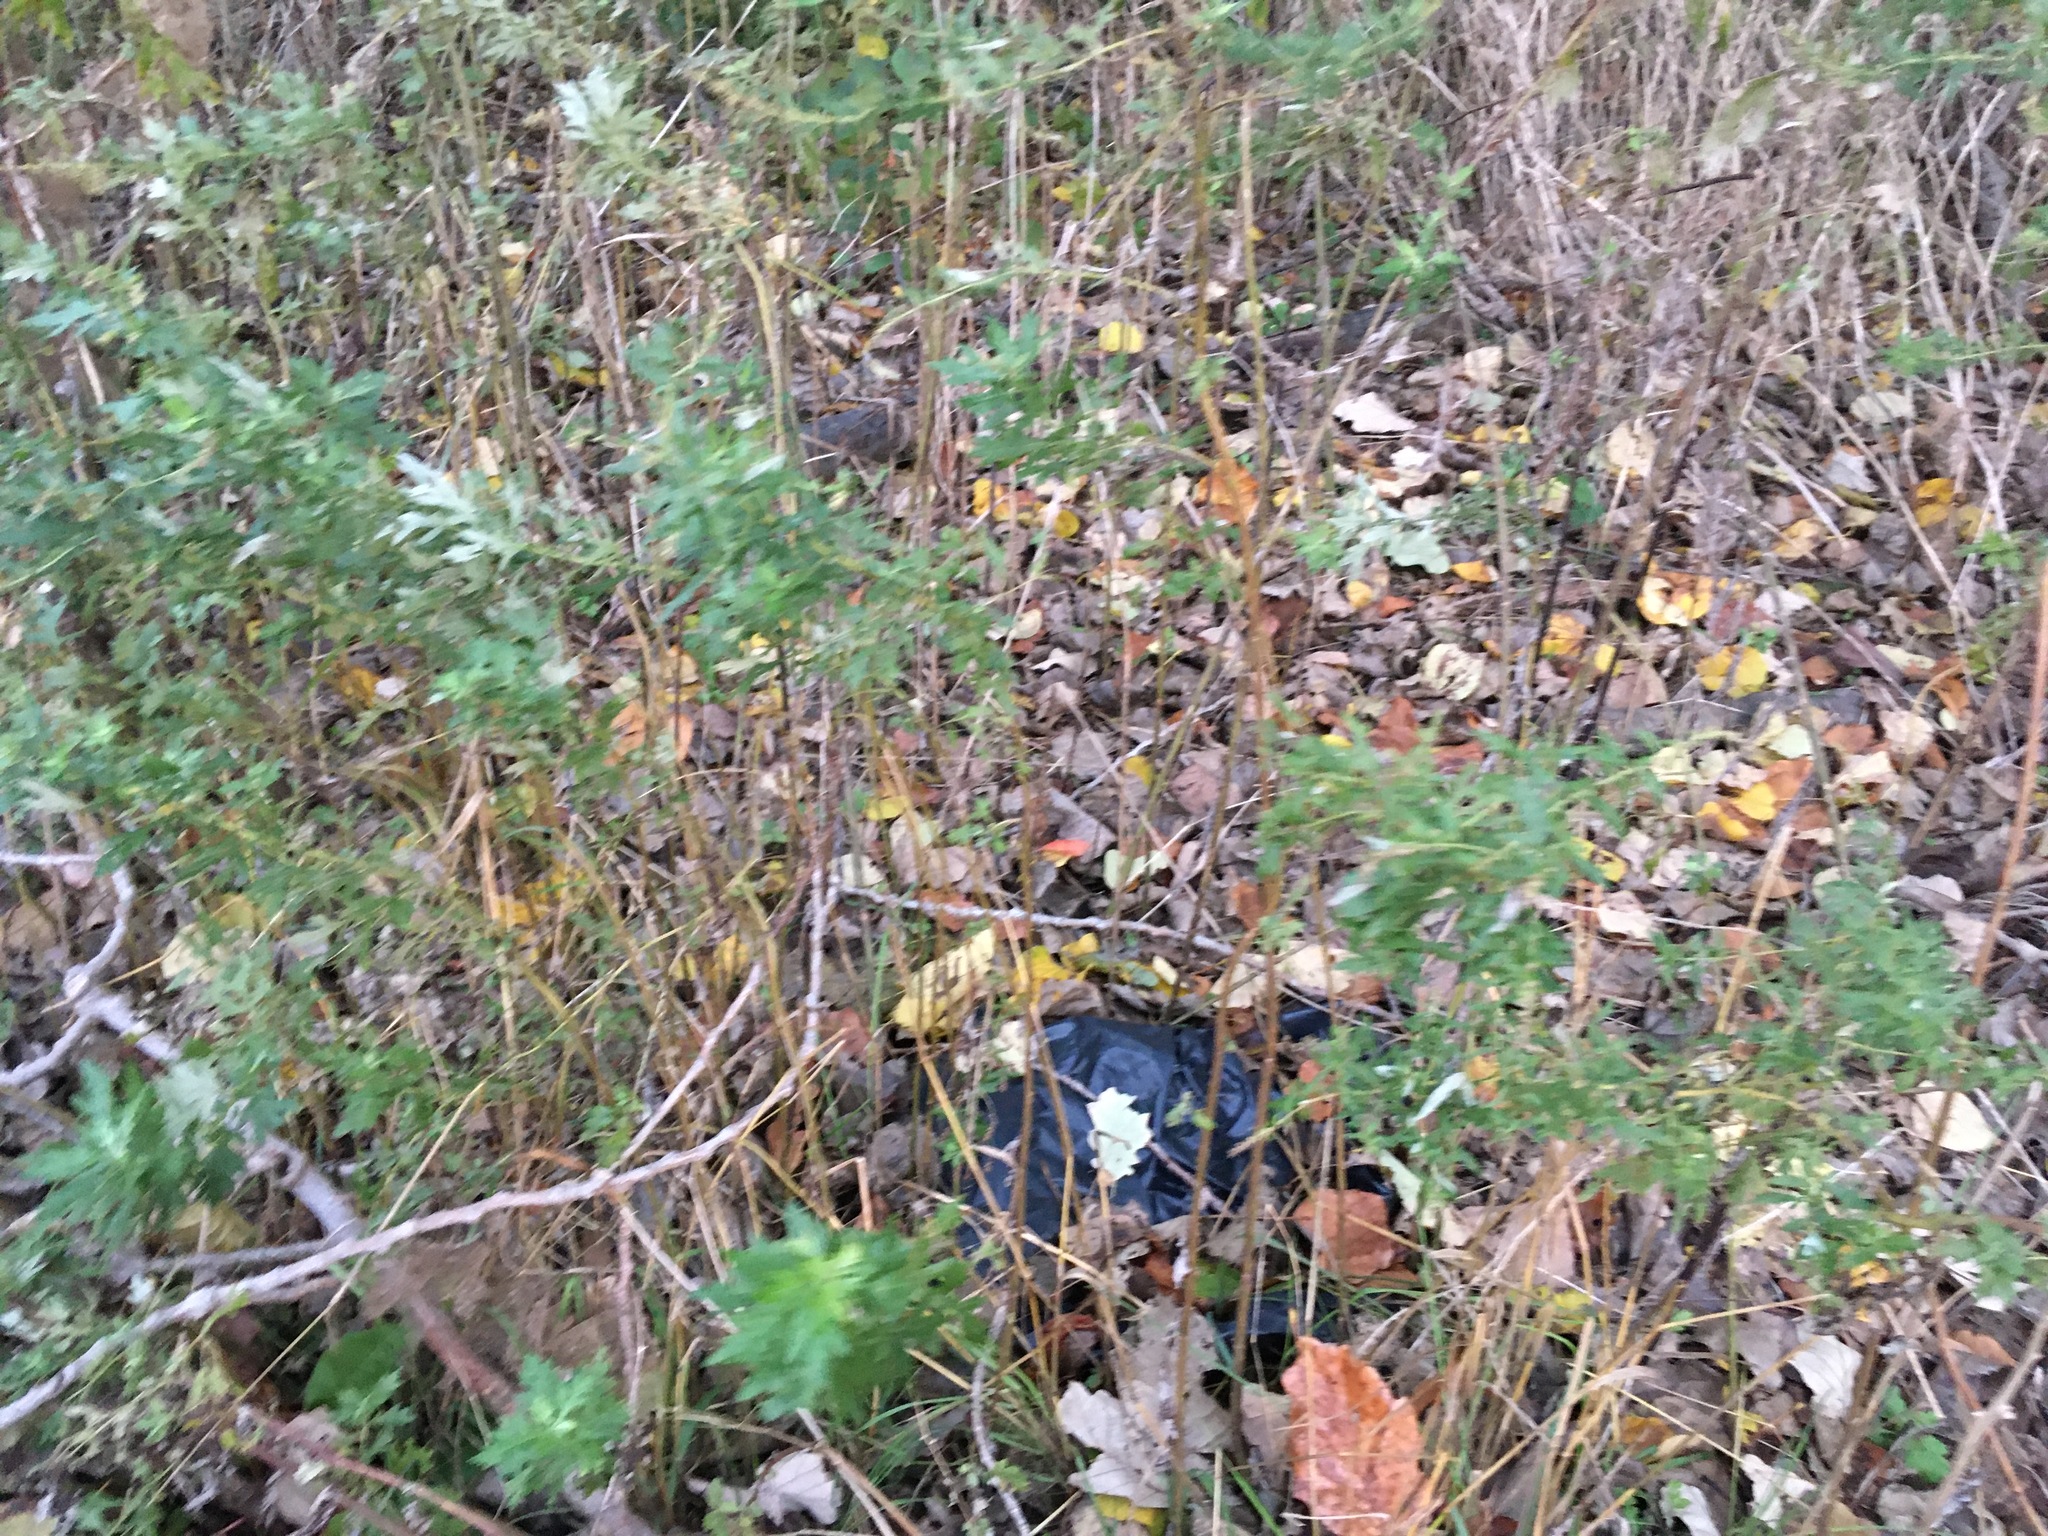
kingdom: Plantae
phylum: Tracheophyta
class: Magnoliopsida
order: Asterales
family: Asteraceae
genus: Artemisia
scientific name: Artemisia vulgaris
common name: Mugwort
